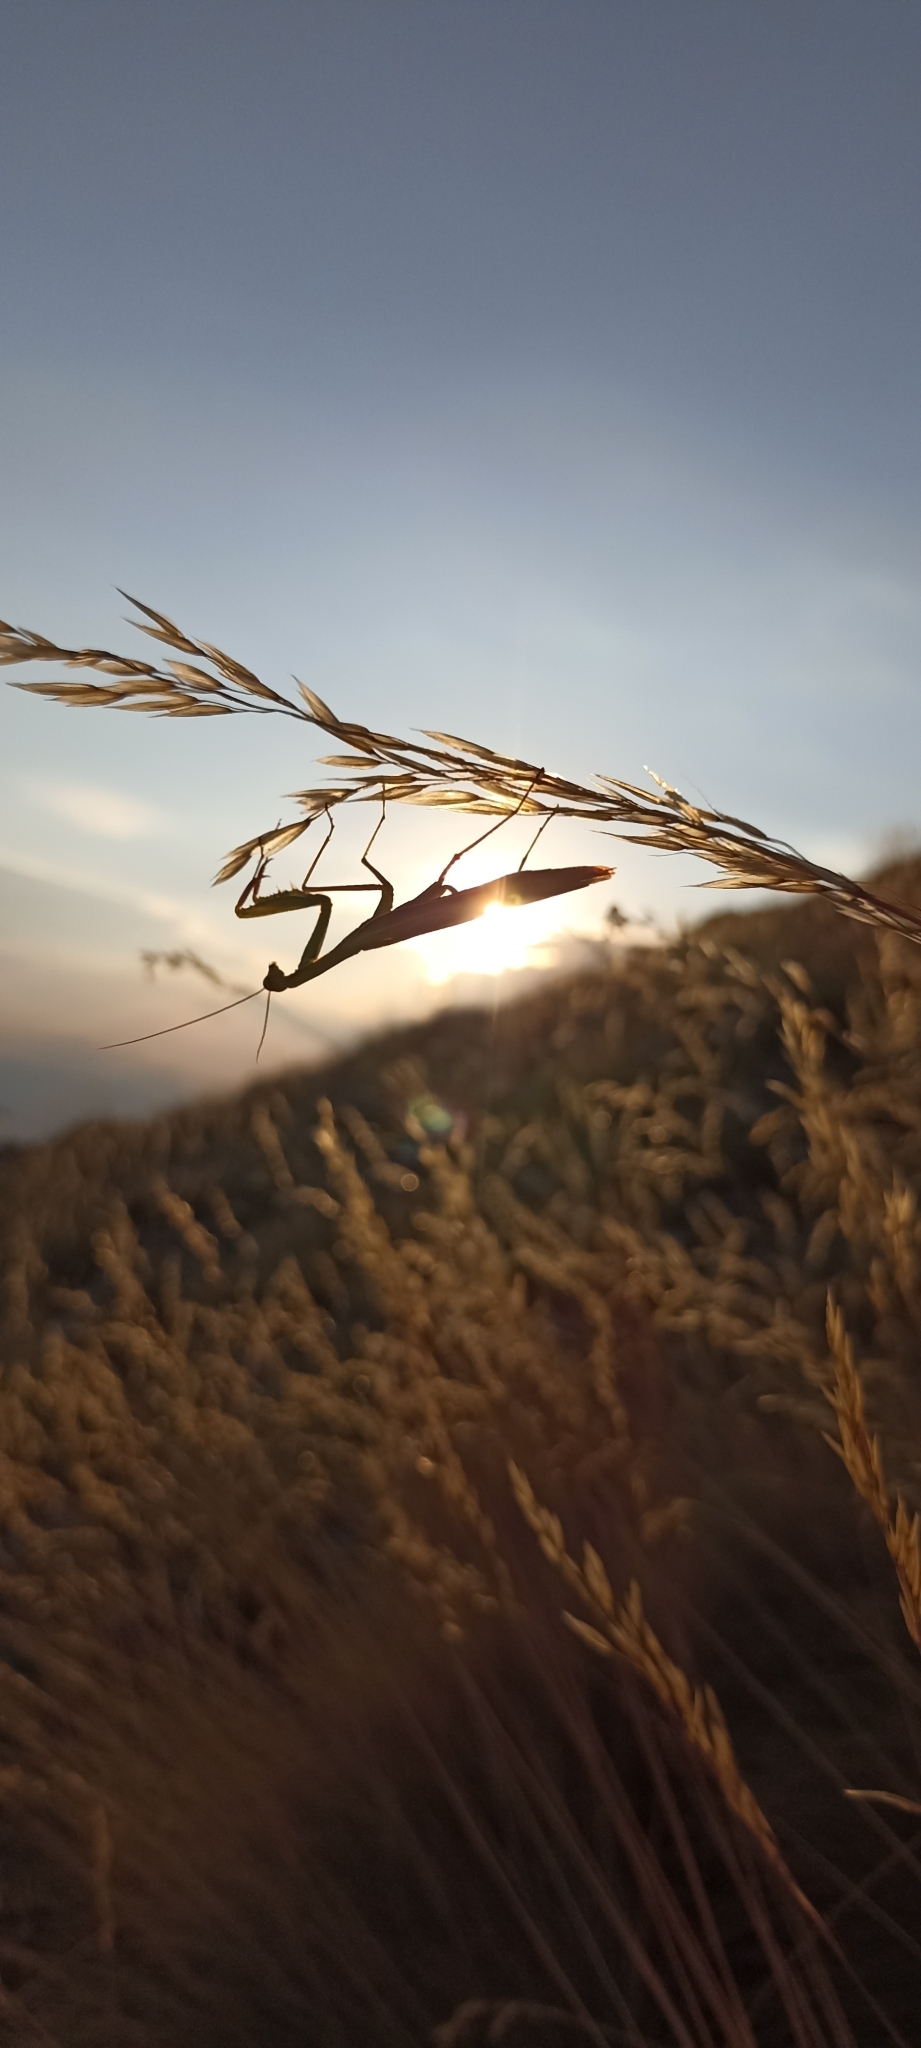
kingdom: Animalia
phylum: Arthropoda
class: Insecta
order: Mantodea
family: Mantidae
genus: Mantis
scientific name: Mantis religiosa
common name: Praying mantis
